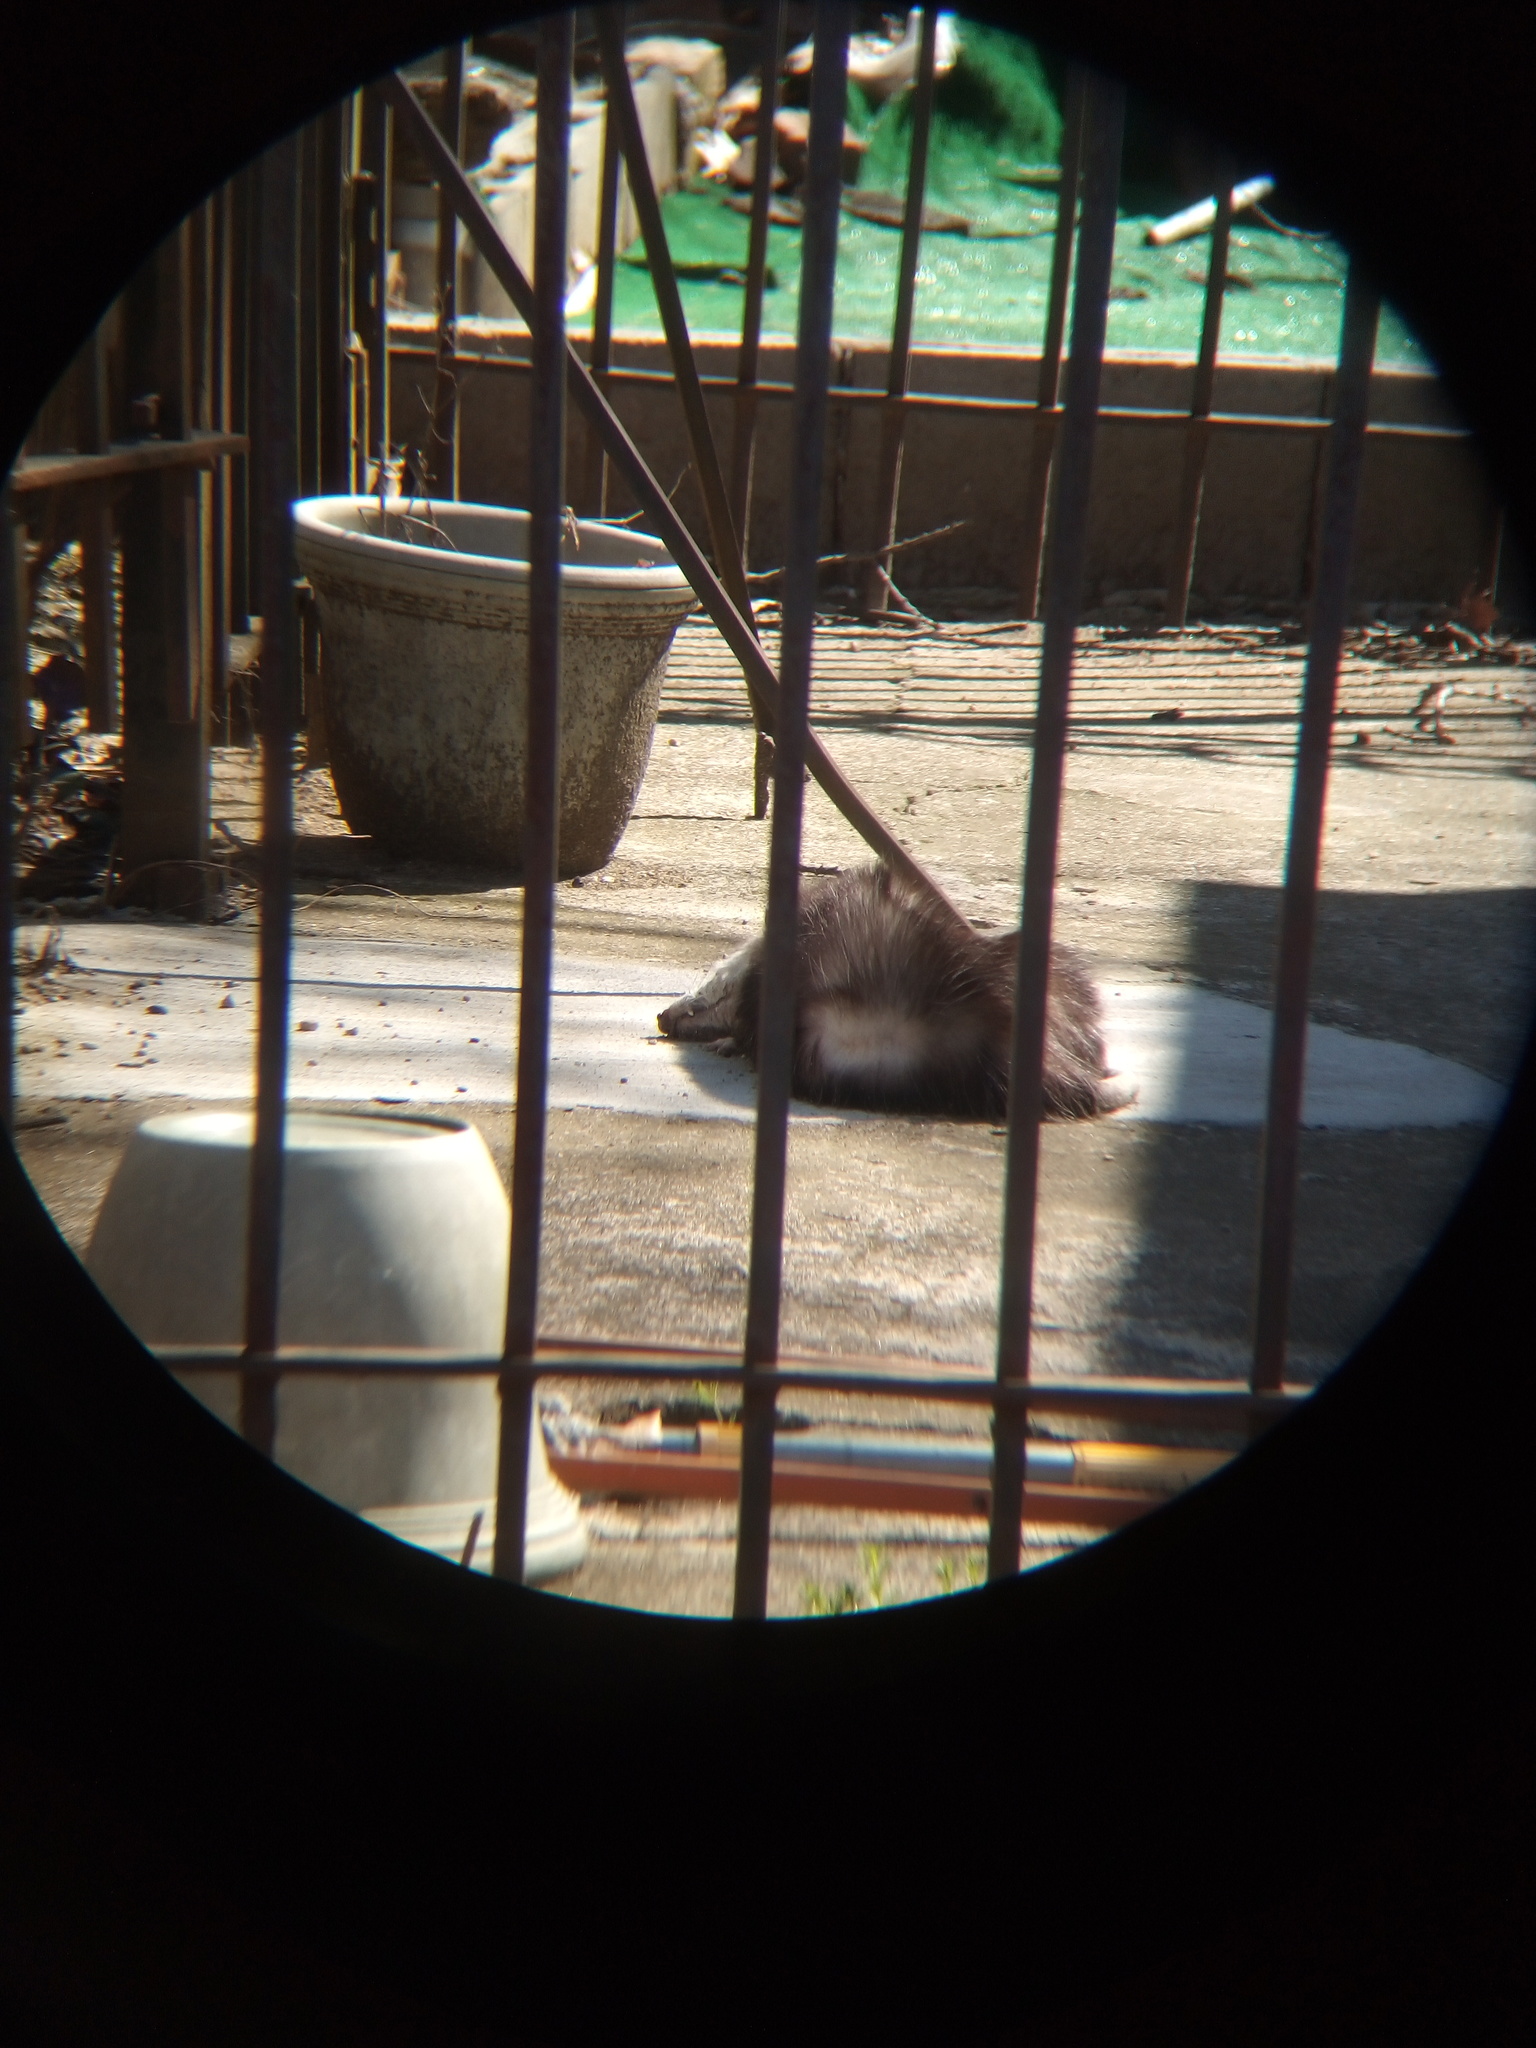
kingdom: Animalia
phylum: Chordata
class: Mammalia
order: Didelphimorphia
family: Didelphidae
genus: Didelphis
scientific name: Didelphis virginiana
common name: Virginia opossum
